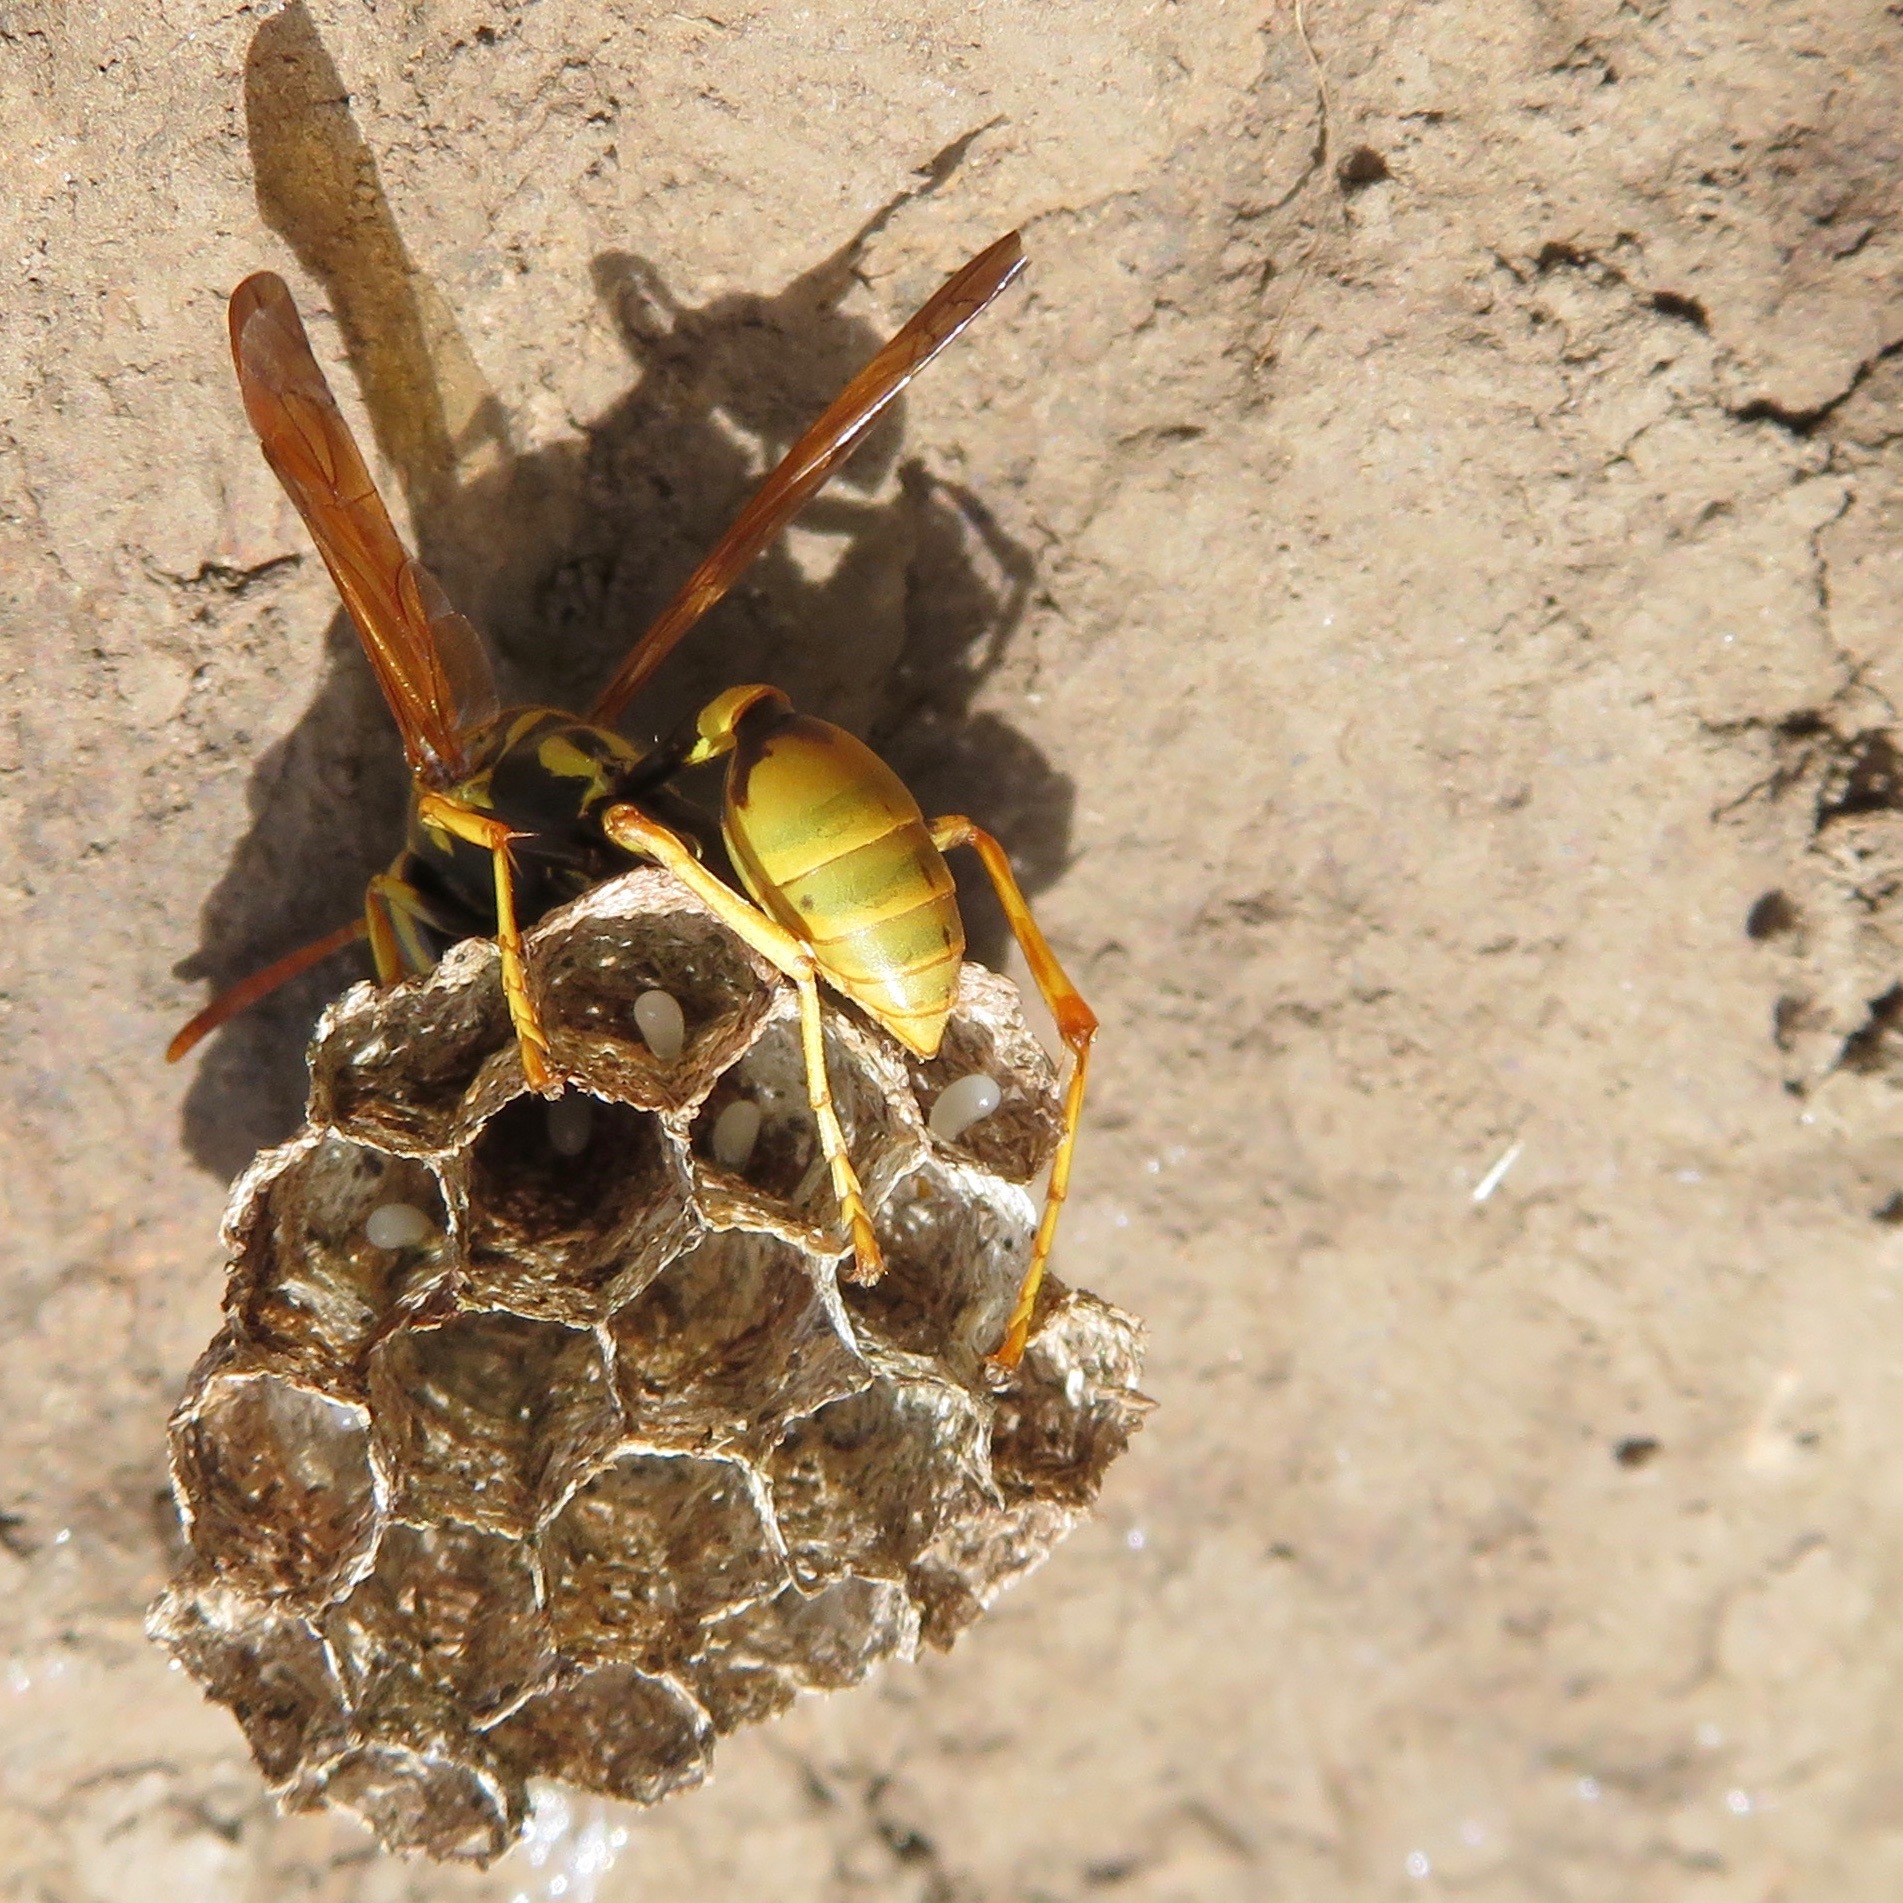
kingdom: Animalia
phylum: Arthropoda
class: Insecta
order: Hymenoptera
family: Vespidae
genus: Mischocyttarus
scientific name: Mischocyttarus flavitarsis
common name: Wasp
